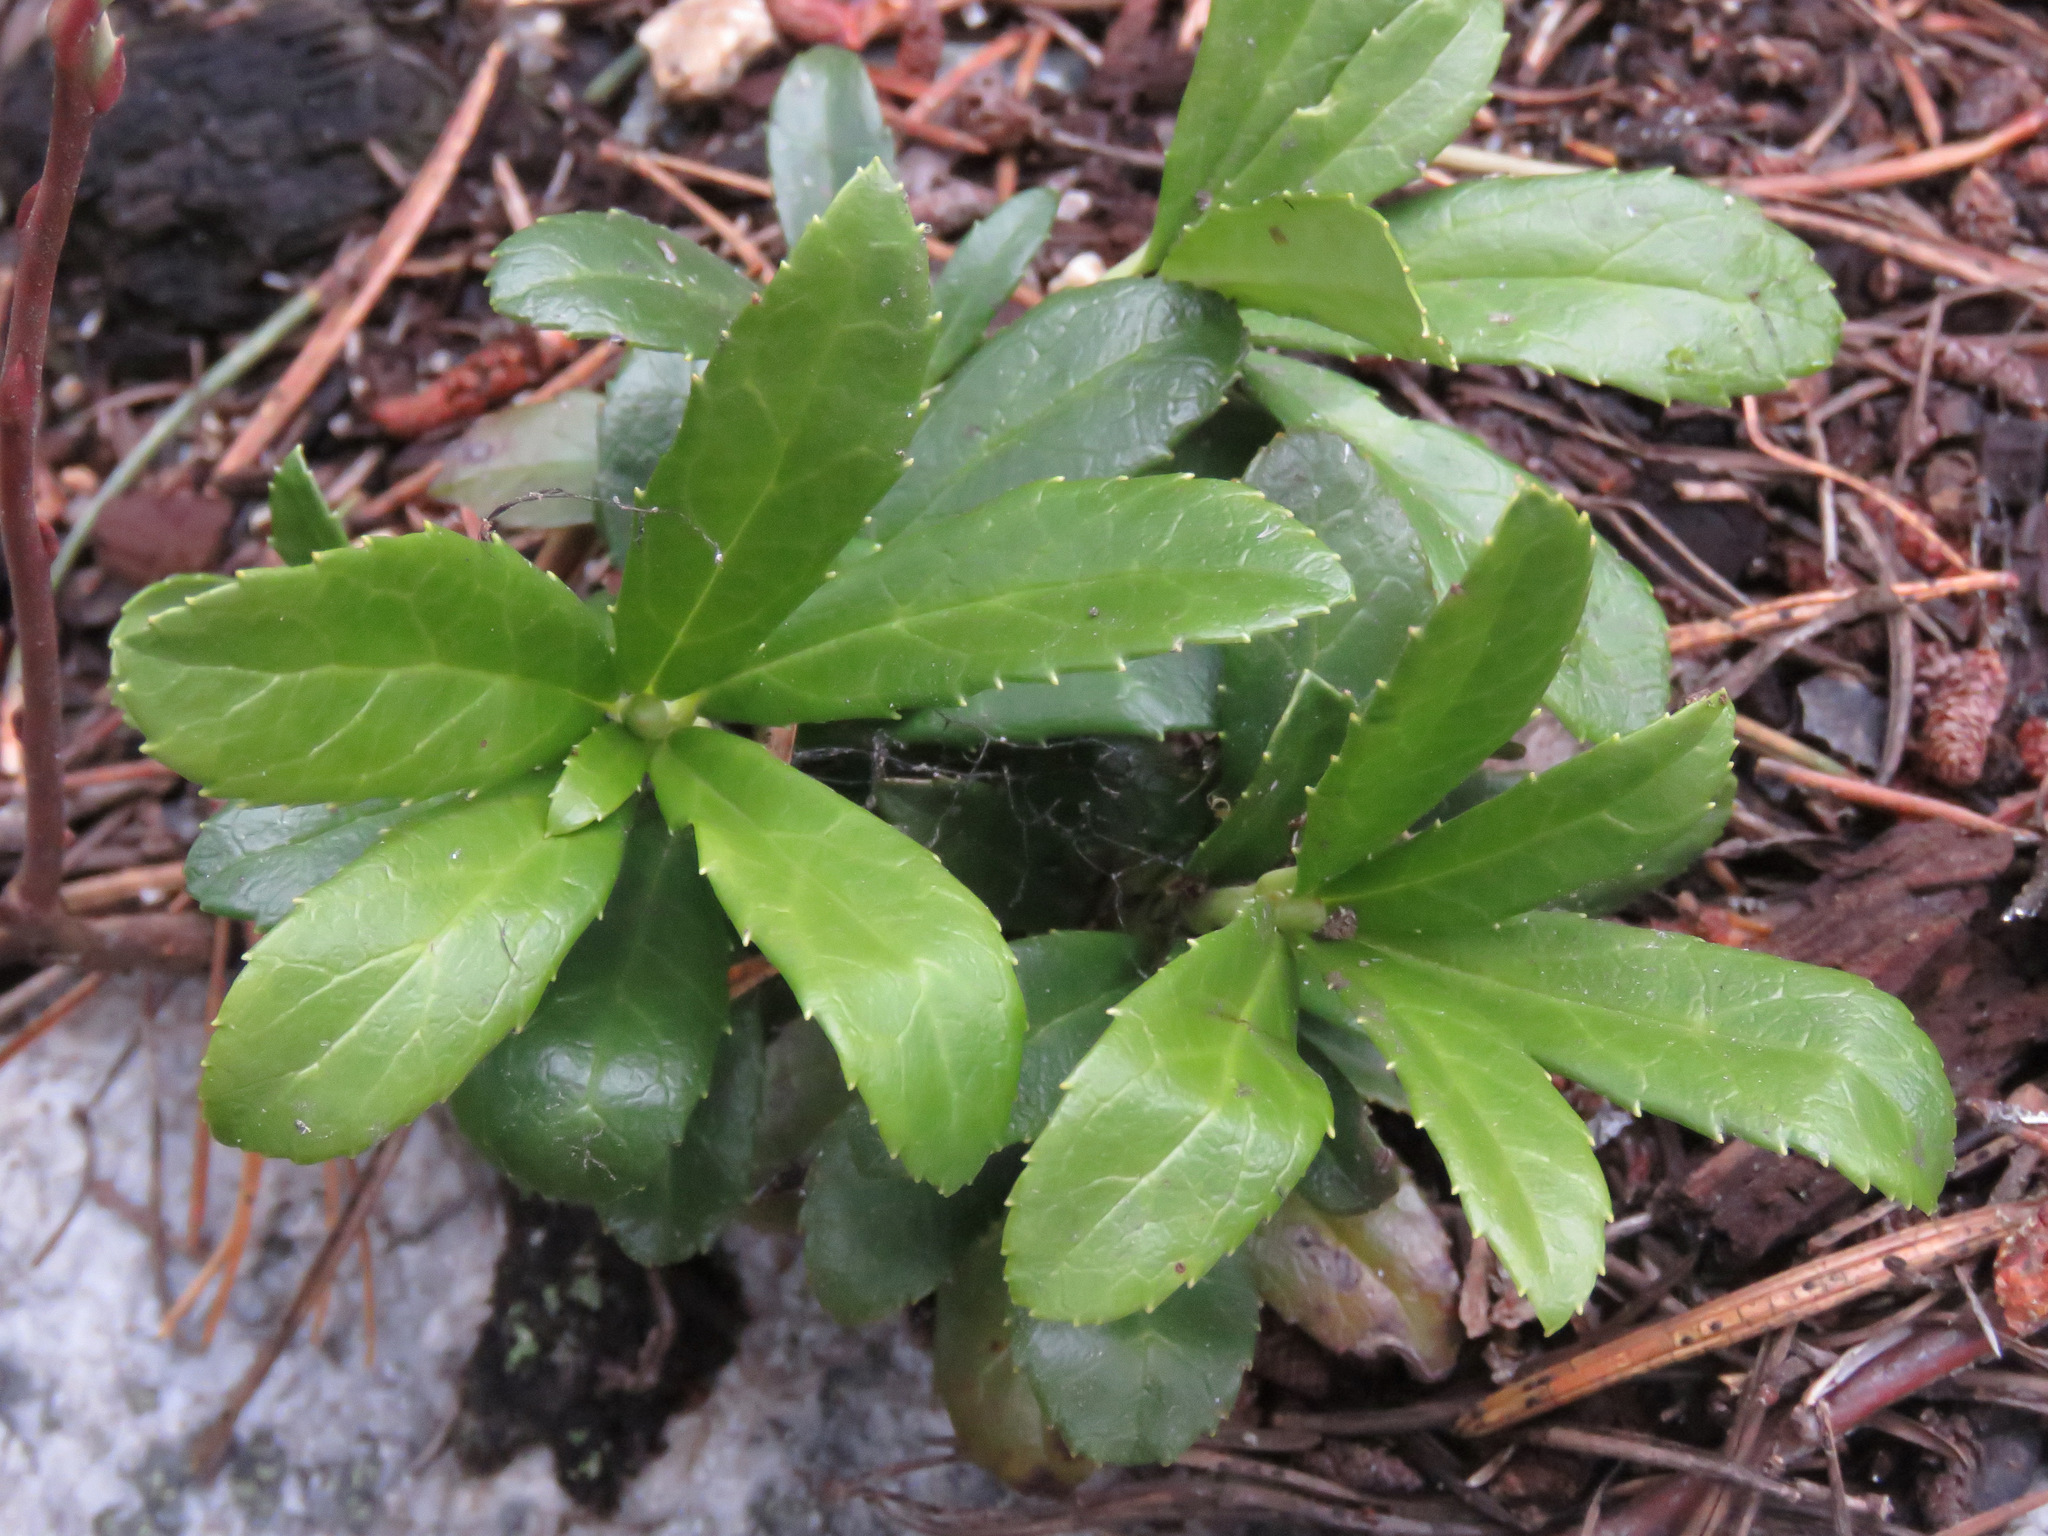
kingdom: Plantae
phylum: Tracheophyta
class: Magnoliopsida
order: Ericales
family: Ericaceae
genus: Chimaphila
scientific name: Chimaphila umbellata
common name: Pipsissewa
